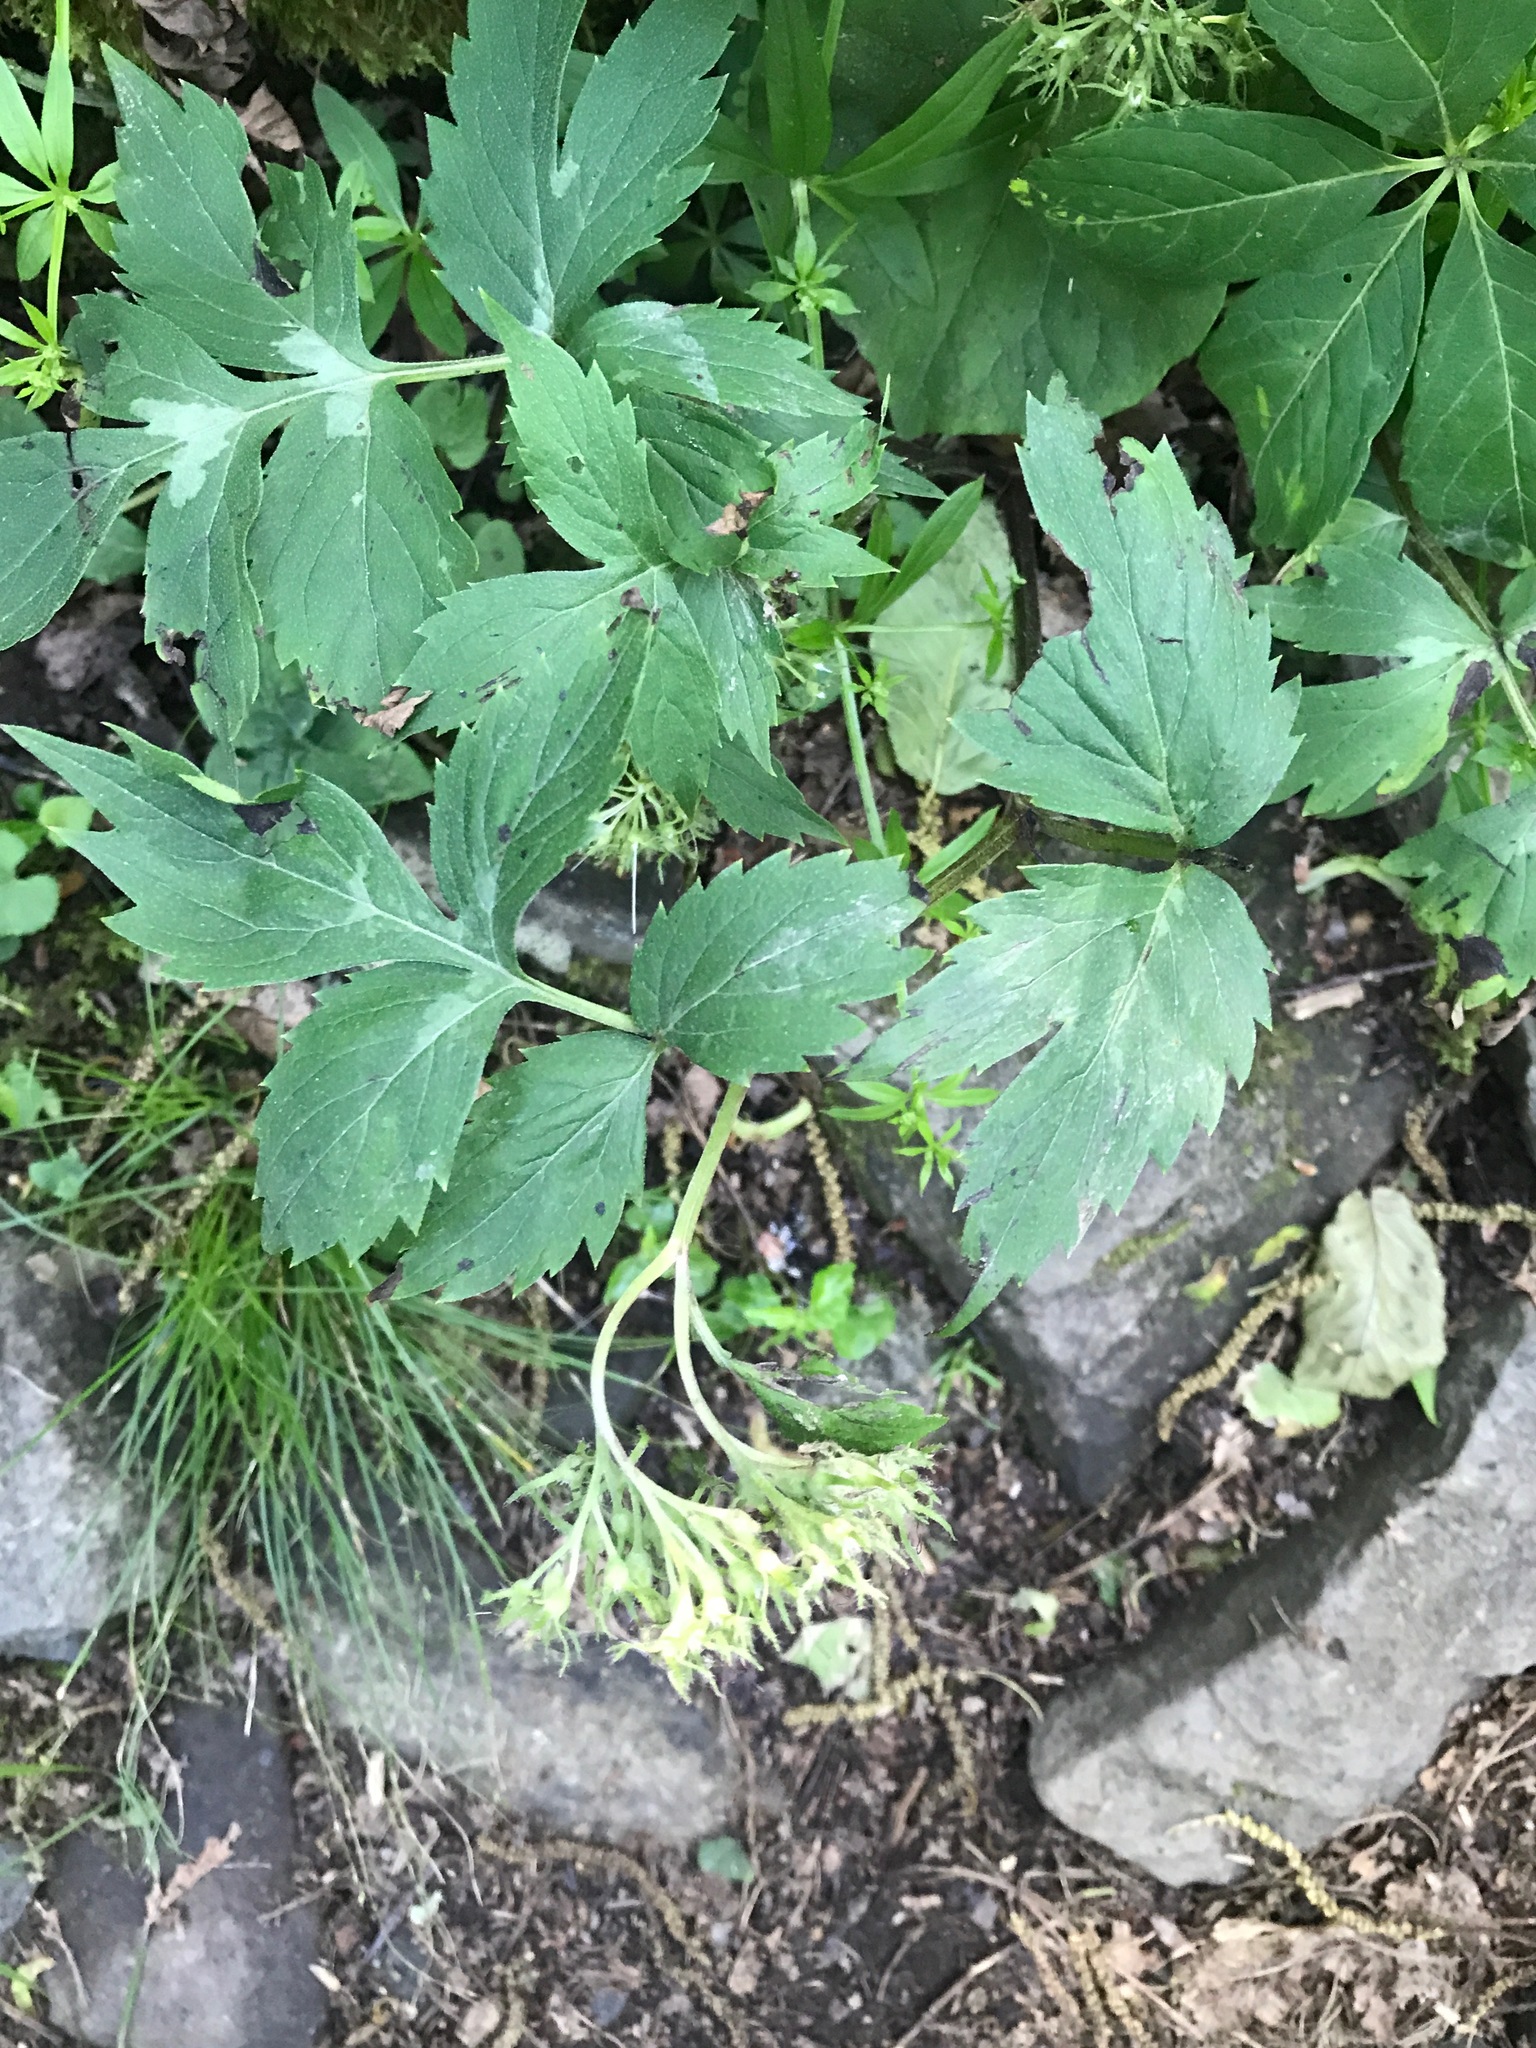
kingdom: Plantae
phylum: Tracheophyta
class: Magnoliopsida
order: Boraginales
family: Hydrophyllaceae
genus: Hydrophyllum
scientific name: Hydrophyllum virginianum
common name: Virginia waterleaf
